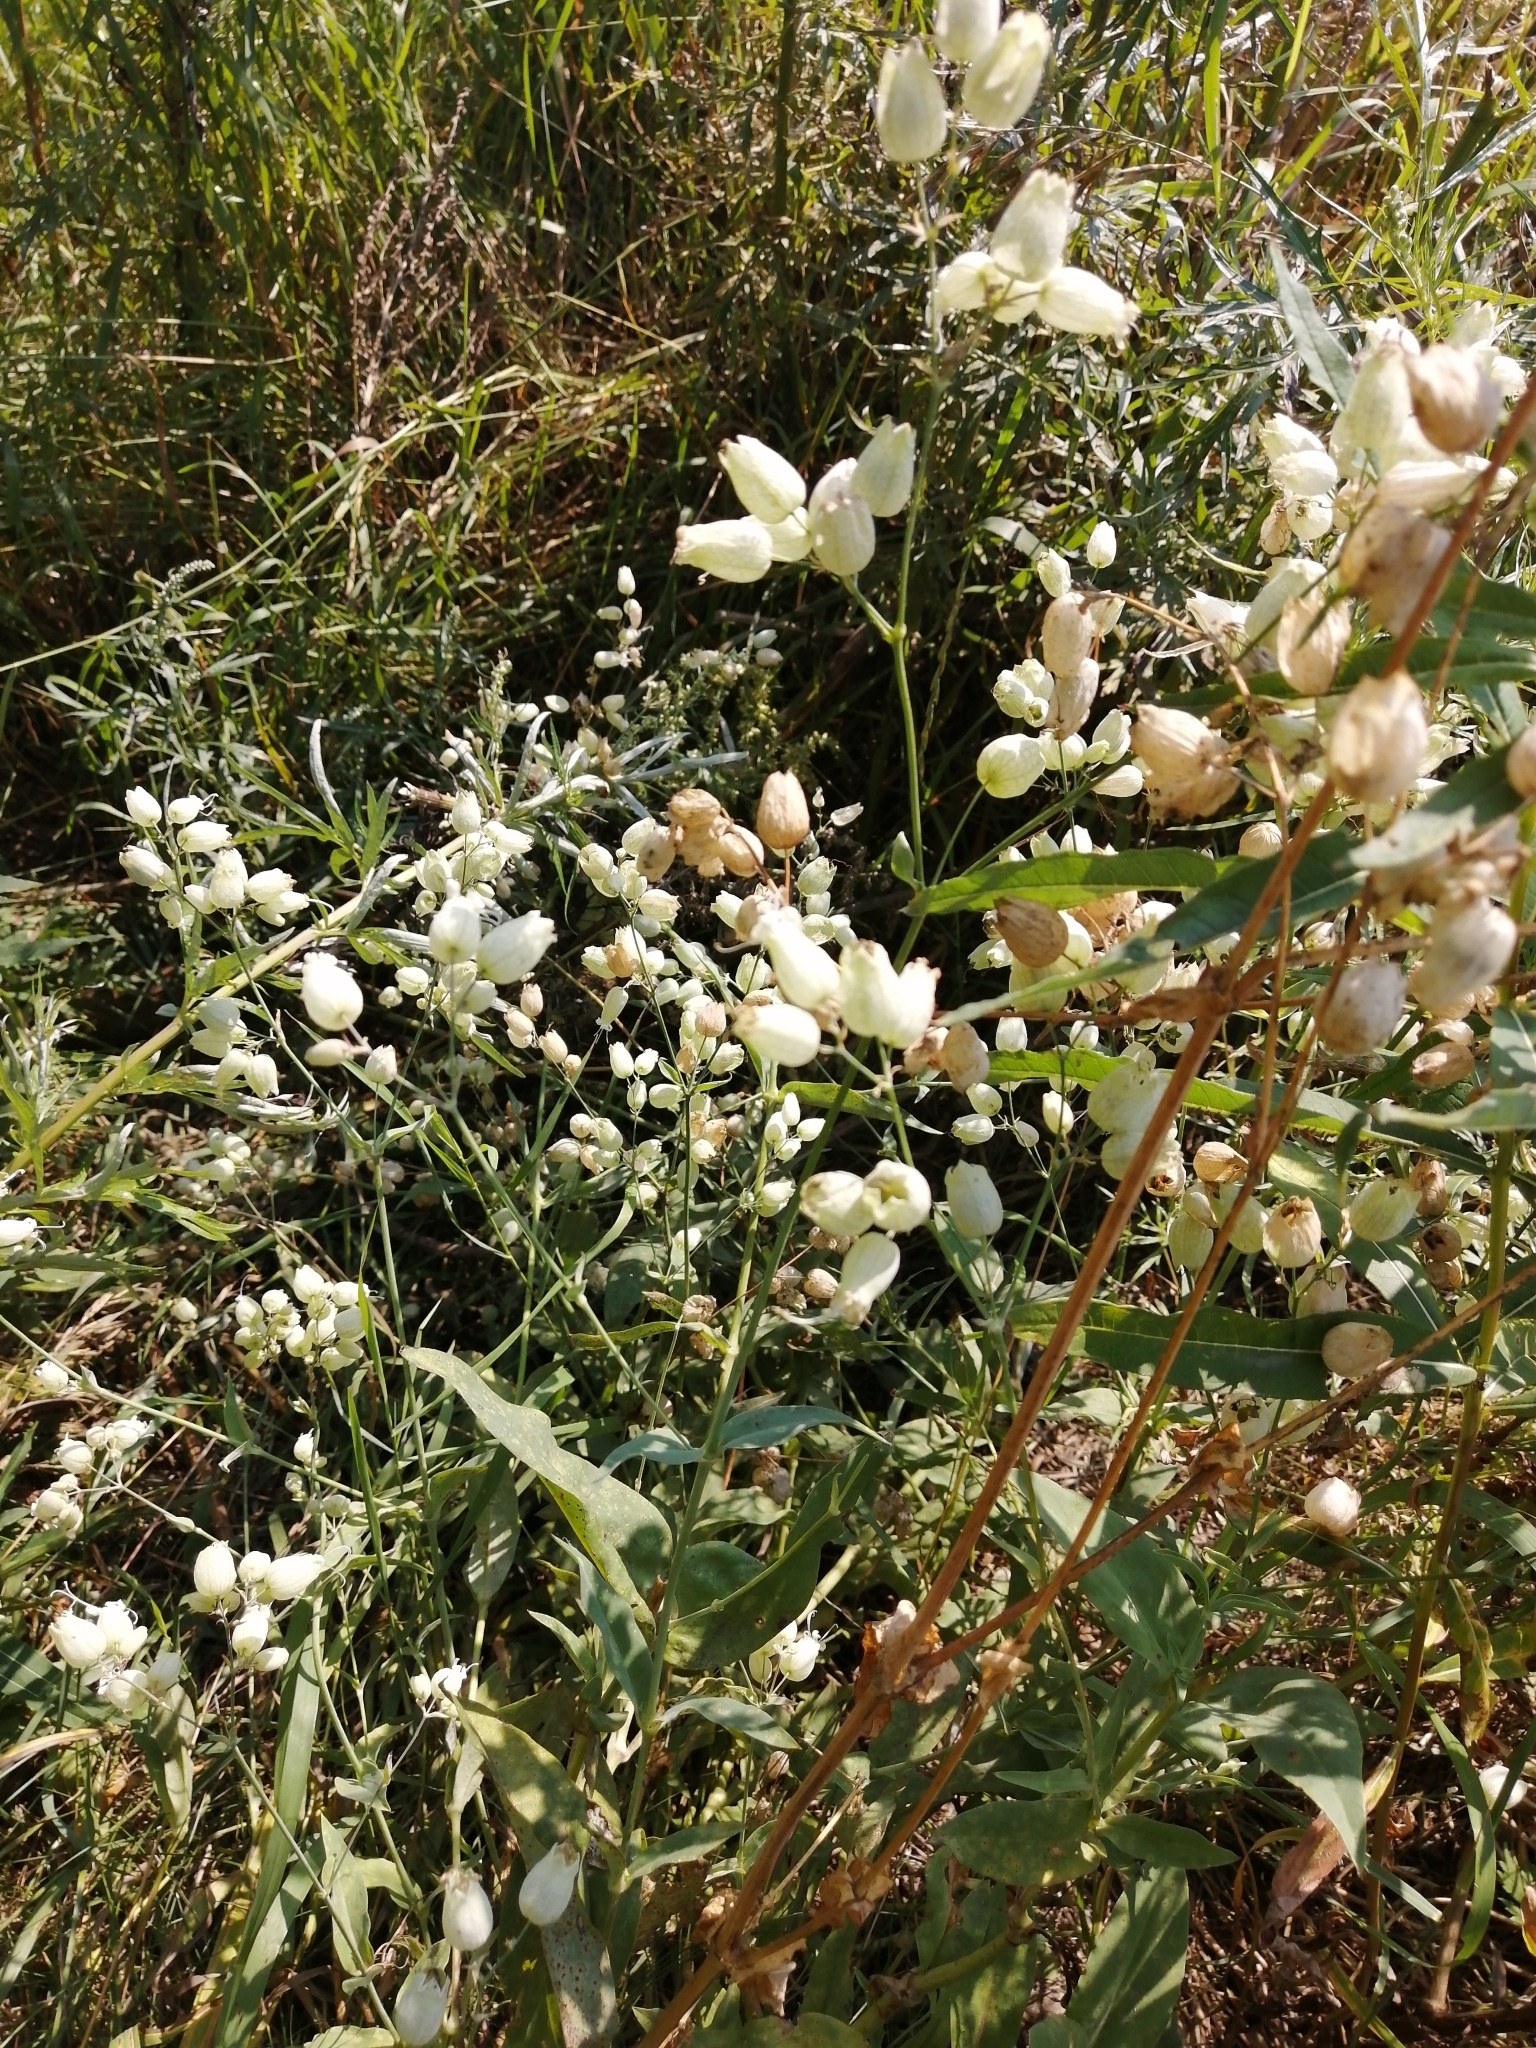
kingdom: Plantae
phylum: Tracheophyta
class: Magnoliopsida
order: Caryophyllales
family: Caryophyllaceae
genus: Silene
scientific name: Silene vulgaris
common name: Bladder campion
